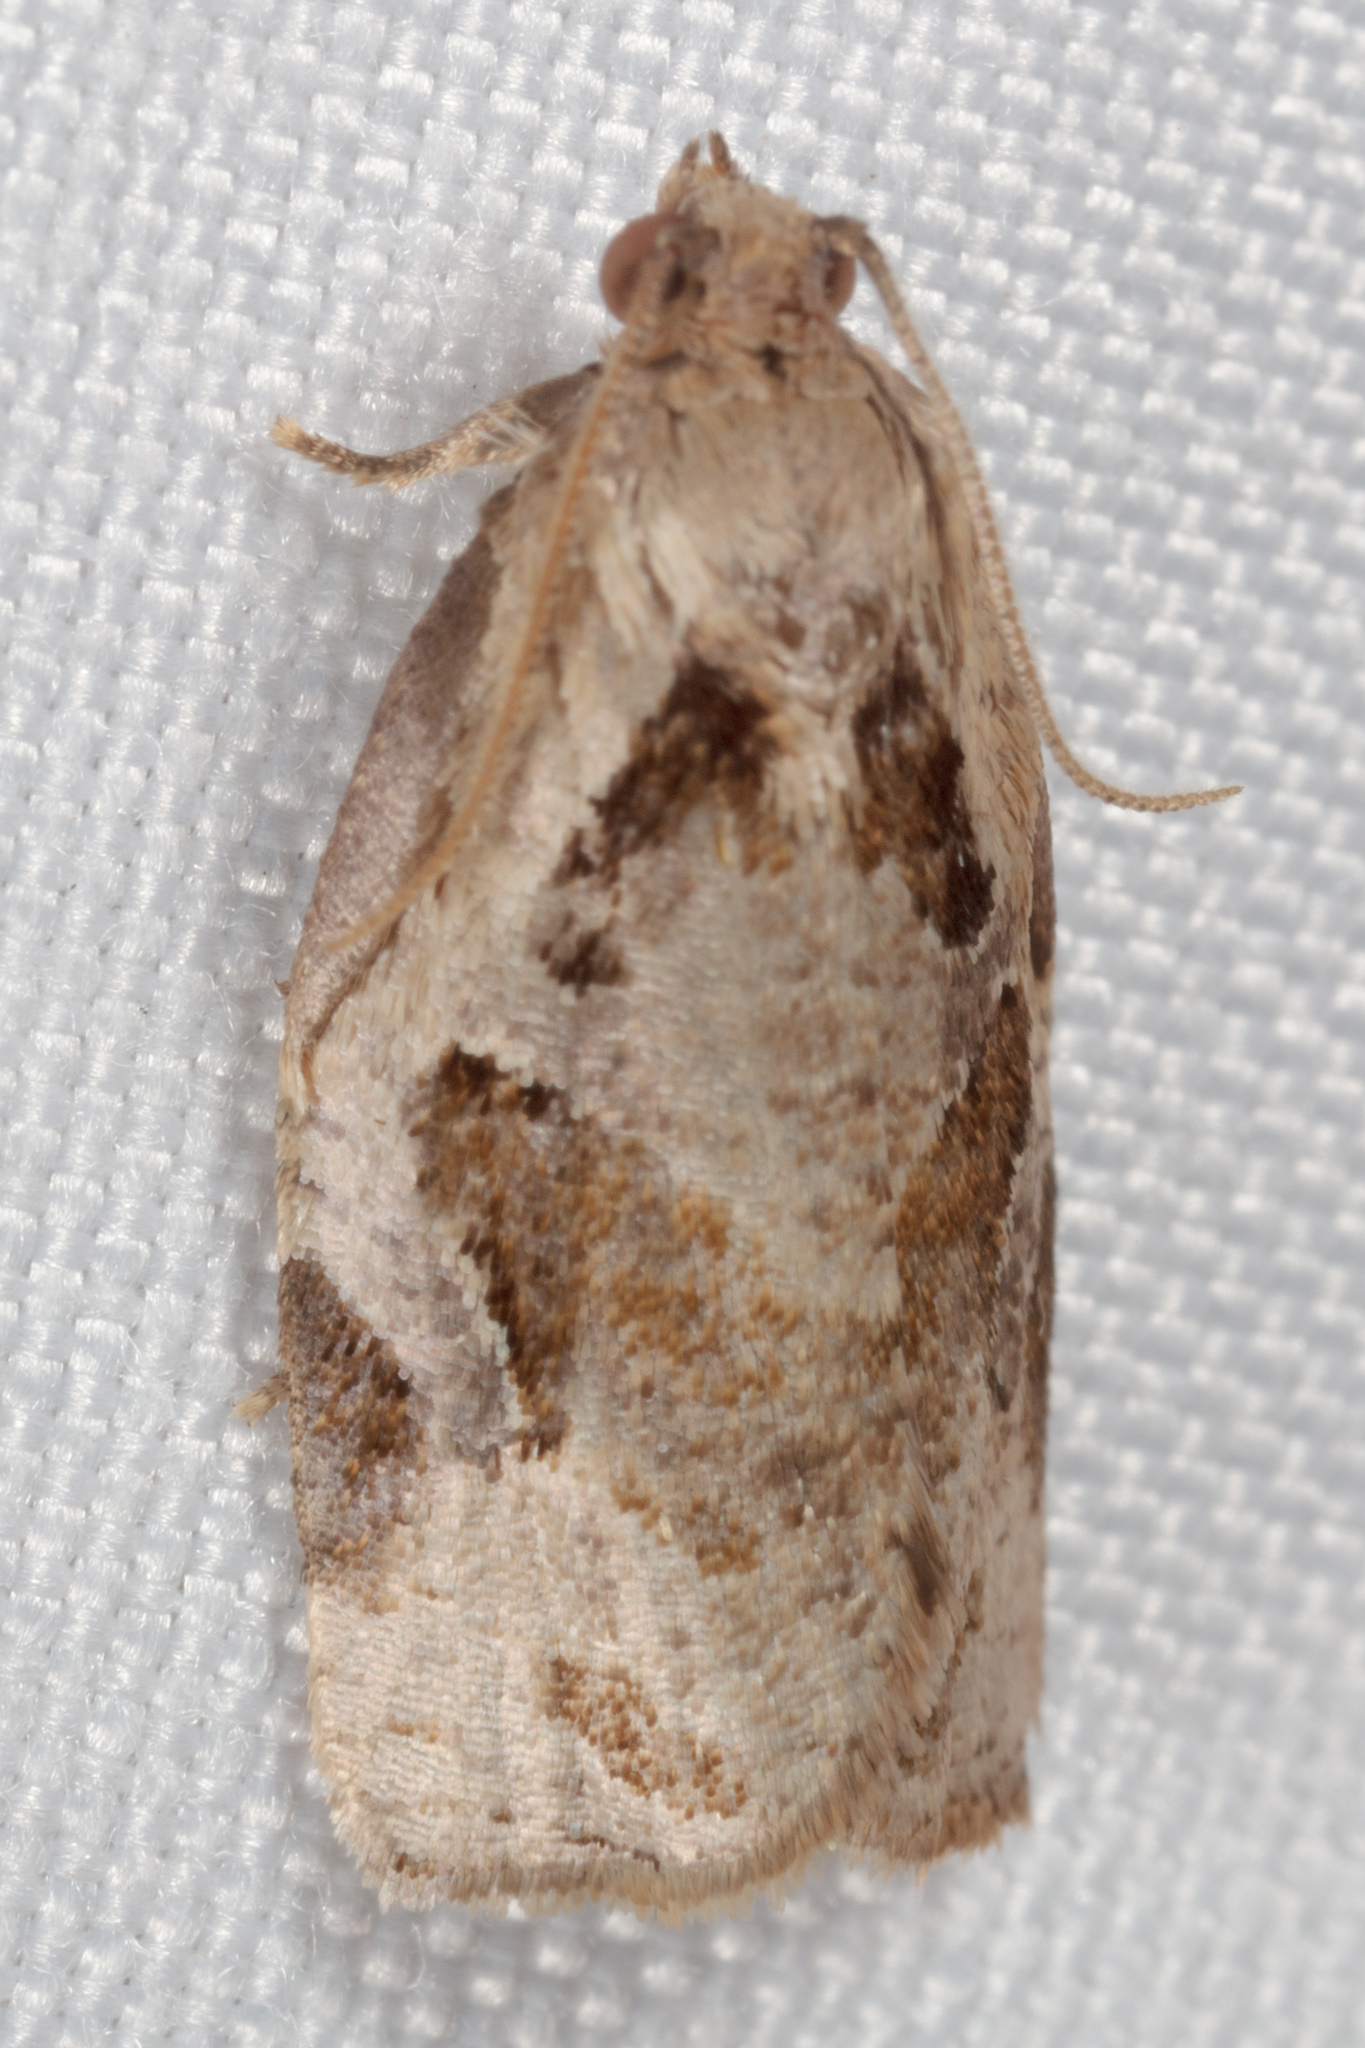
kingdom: Animalia
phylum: Arthropoda
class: Insecta
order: Lepidoptera
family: Tortricidae
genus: Archips
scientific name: Archips grisea
